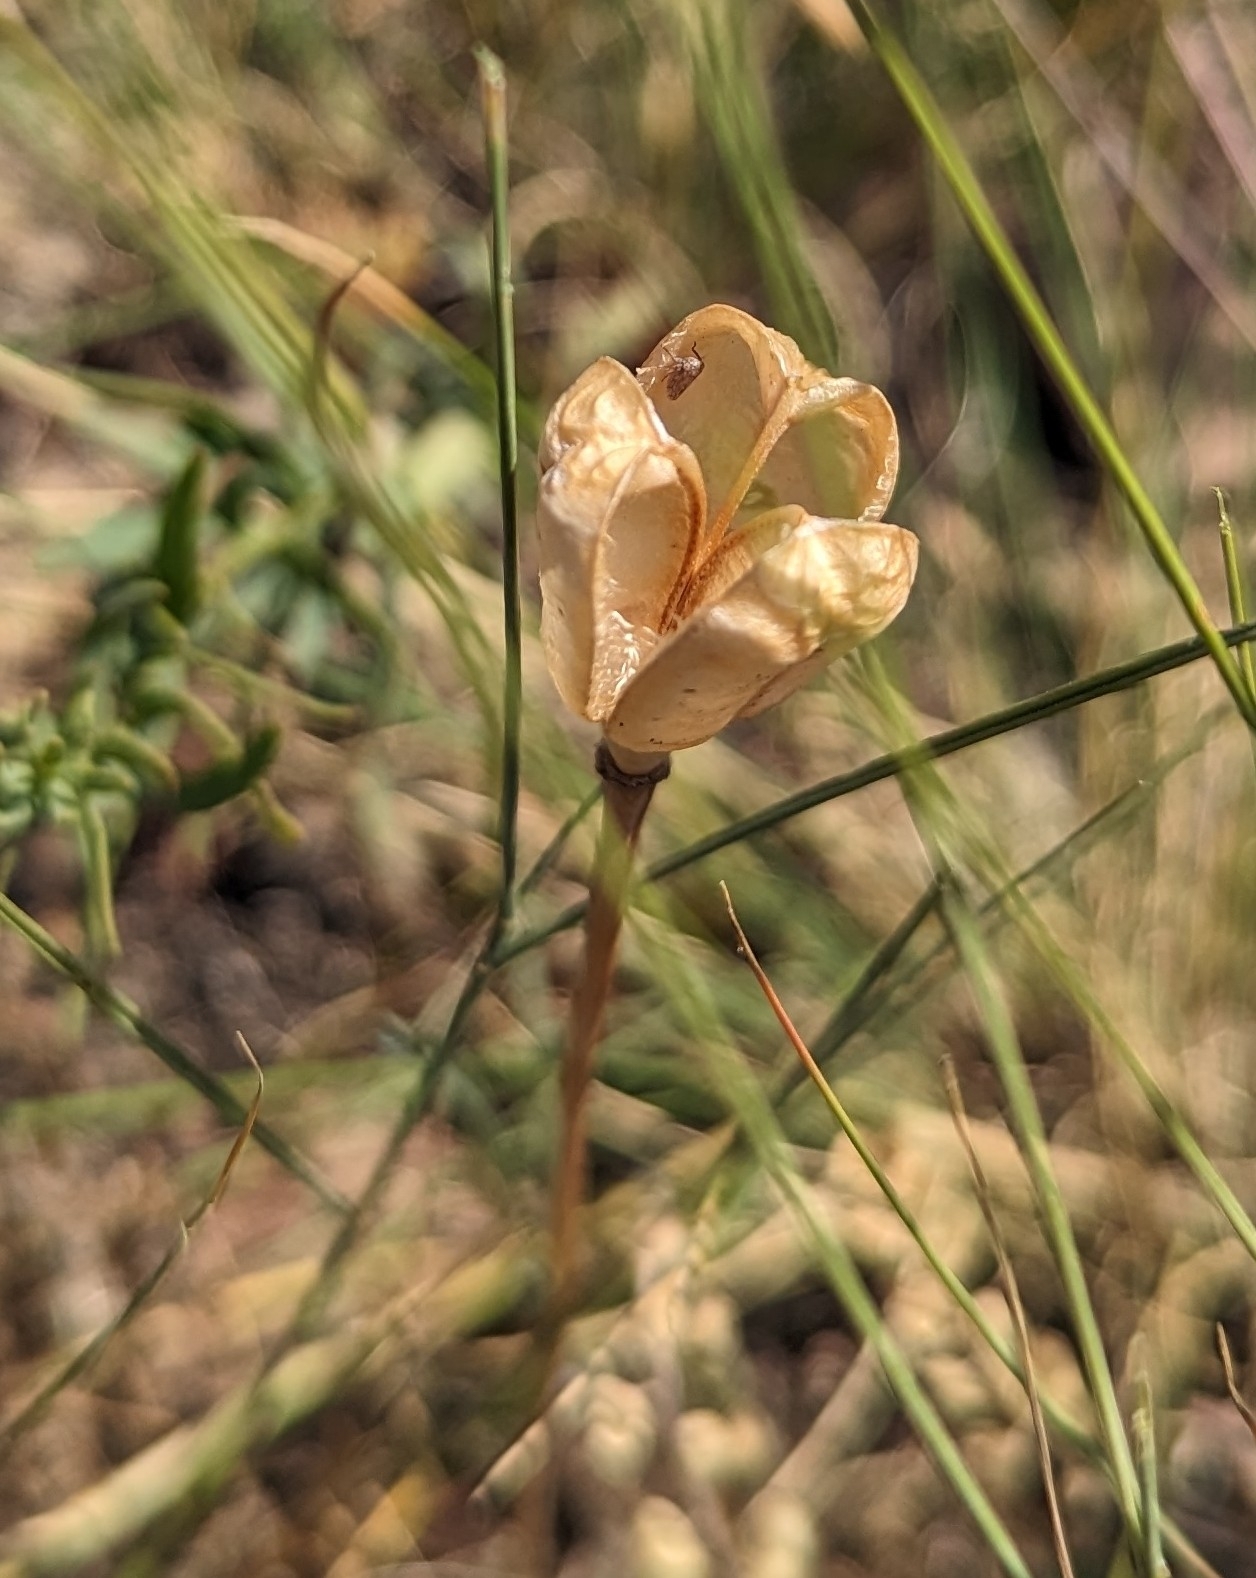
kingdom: Plantae
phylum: Tracheophyta
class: Liliopsida
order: Liliales
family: Liliaceae
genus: Fritillaria
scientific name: Fritillaria pudica
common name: Yellow fritillary
